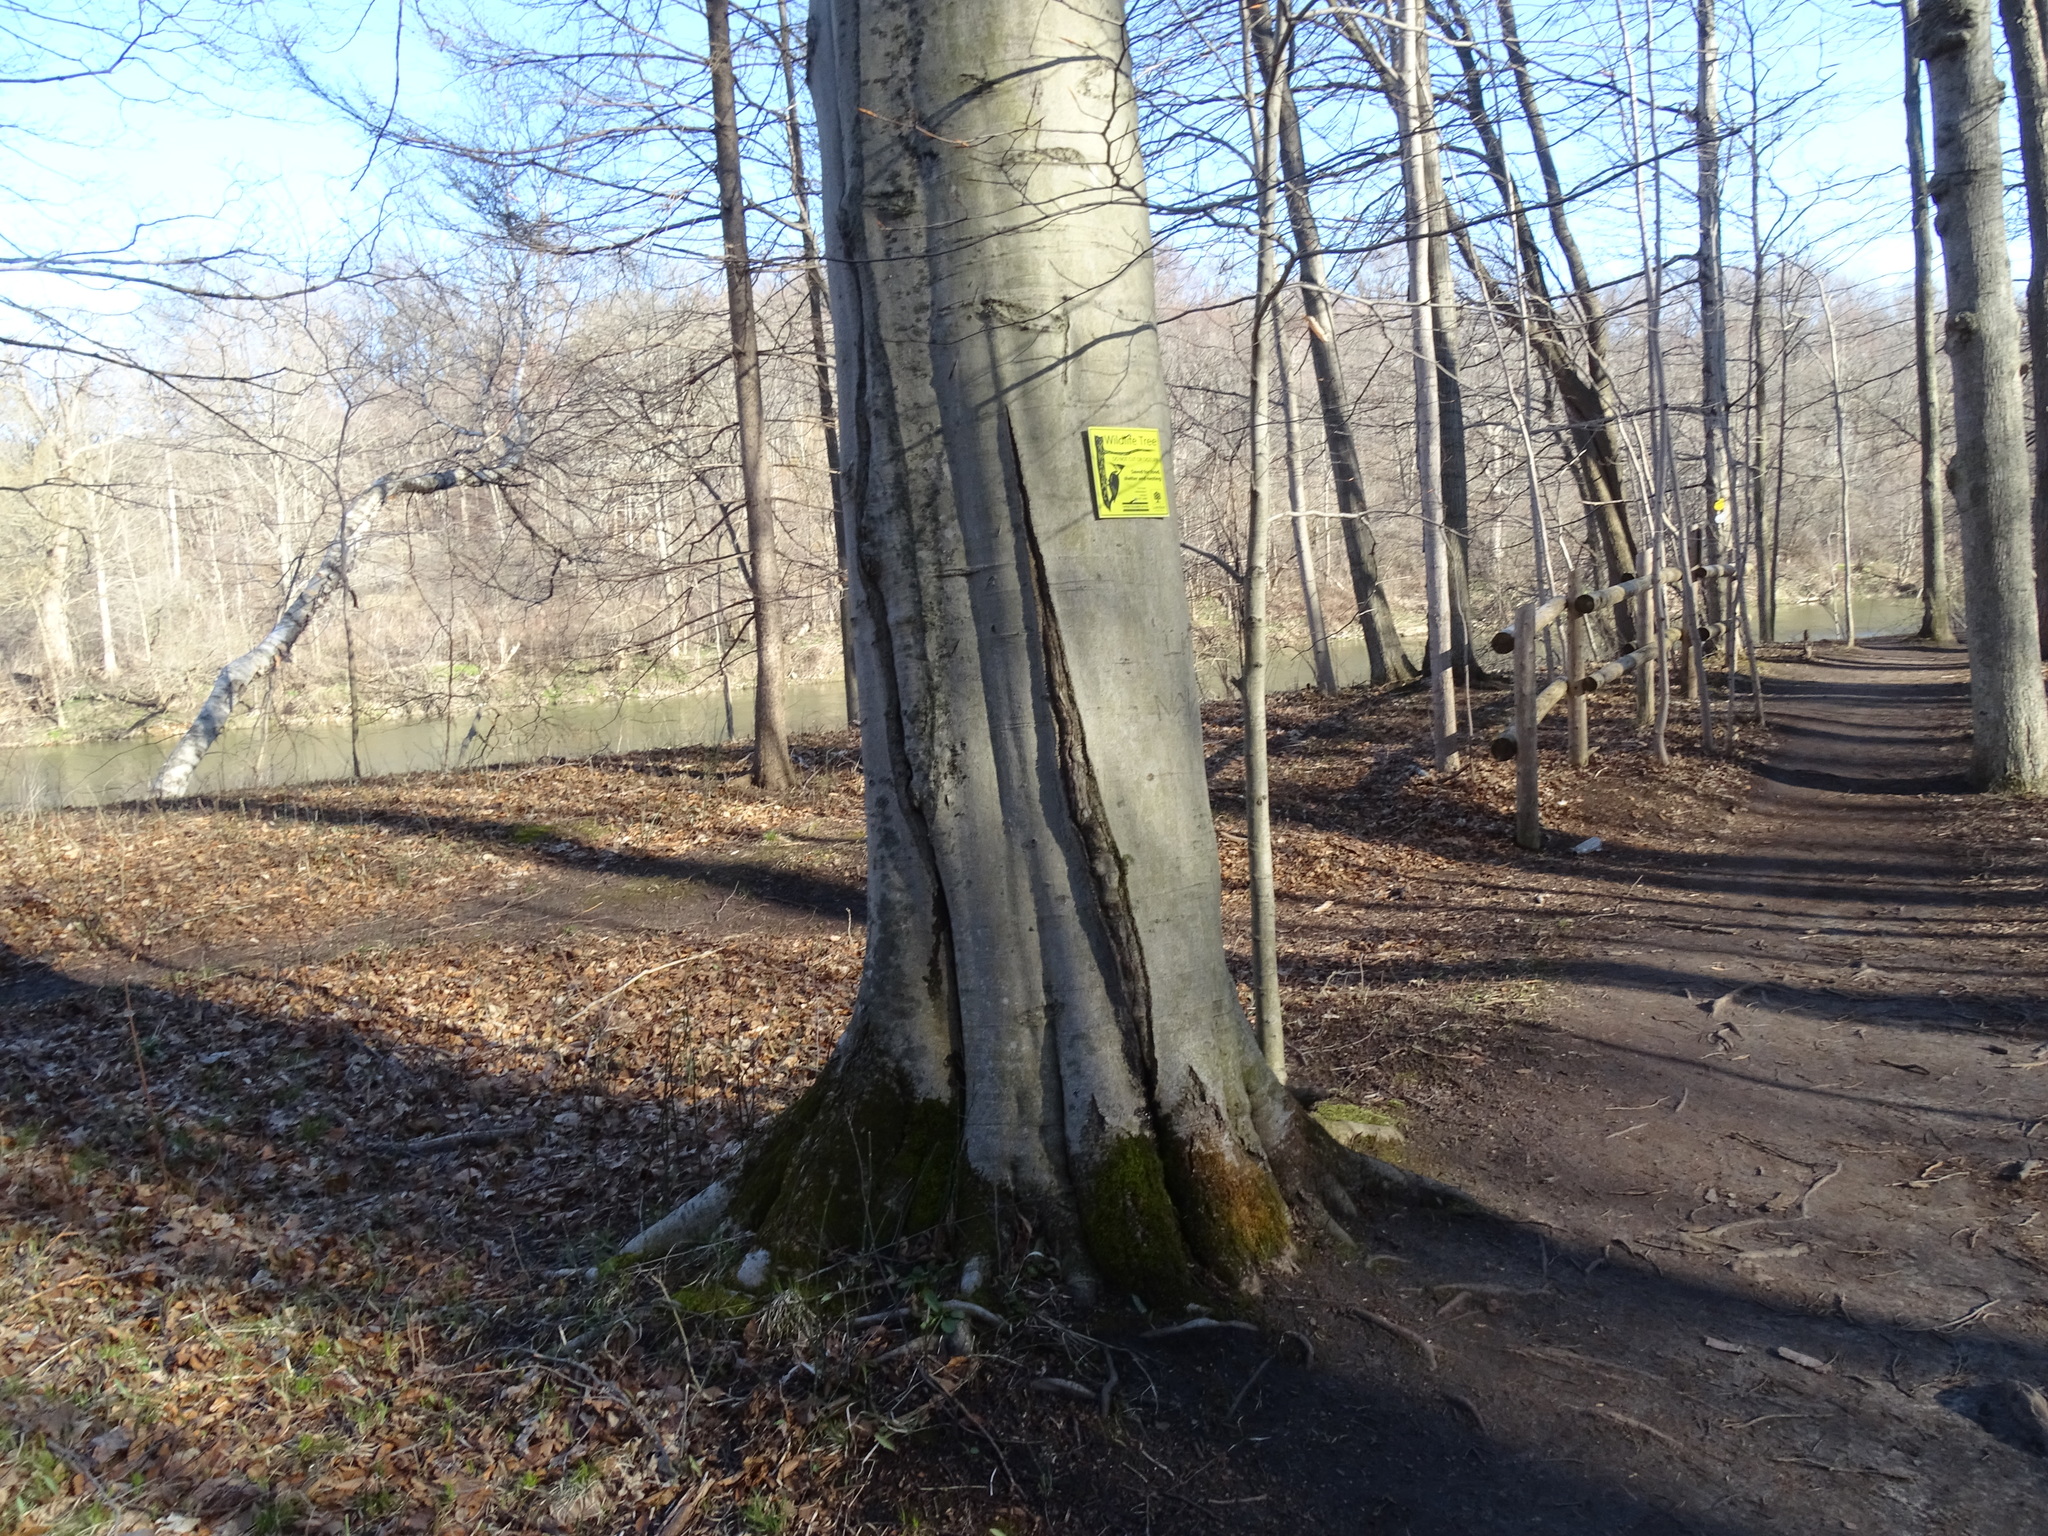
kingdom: Plantae
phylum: Tracheophyta
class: Magnoliopsida
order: Fagales
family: Fagaceae
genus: Fagus
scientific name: Fagus grandifolia
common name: American beech
